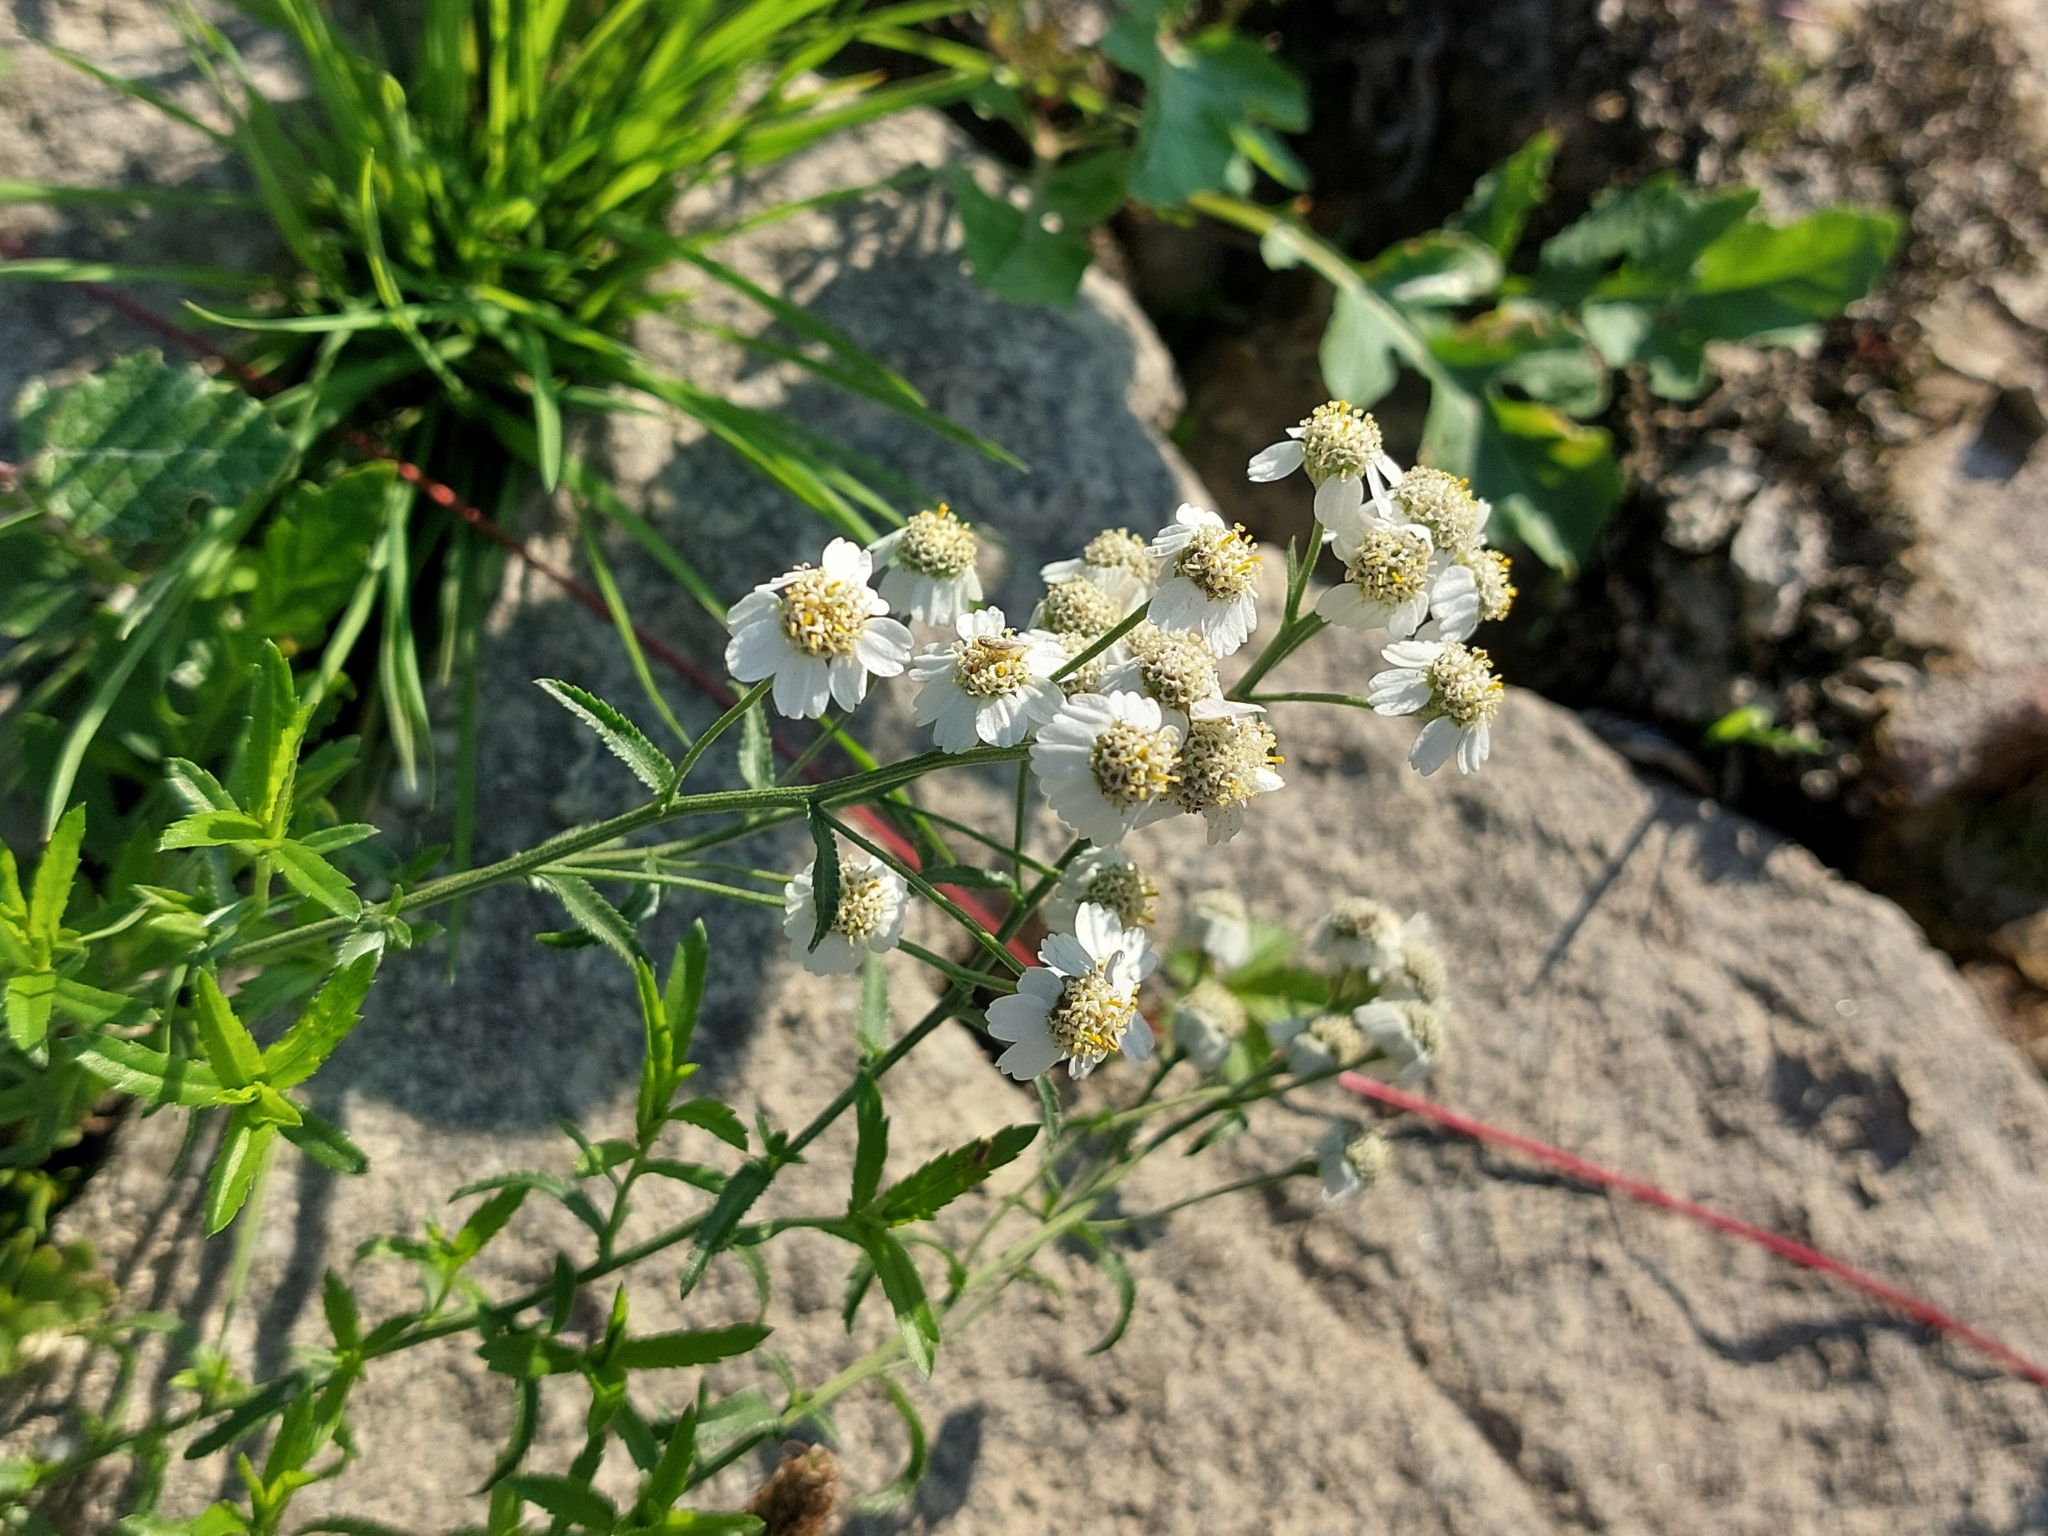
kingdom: Plantae
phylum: Tracheophyta
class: Magnoliopsida
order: Asterales
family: Asteraceae
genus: Achillea
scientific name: Achillea ptarmica
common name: Sneezeweed
